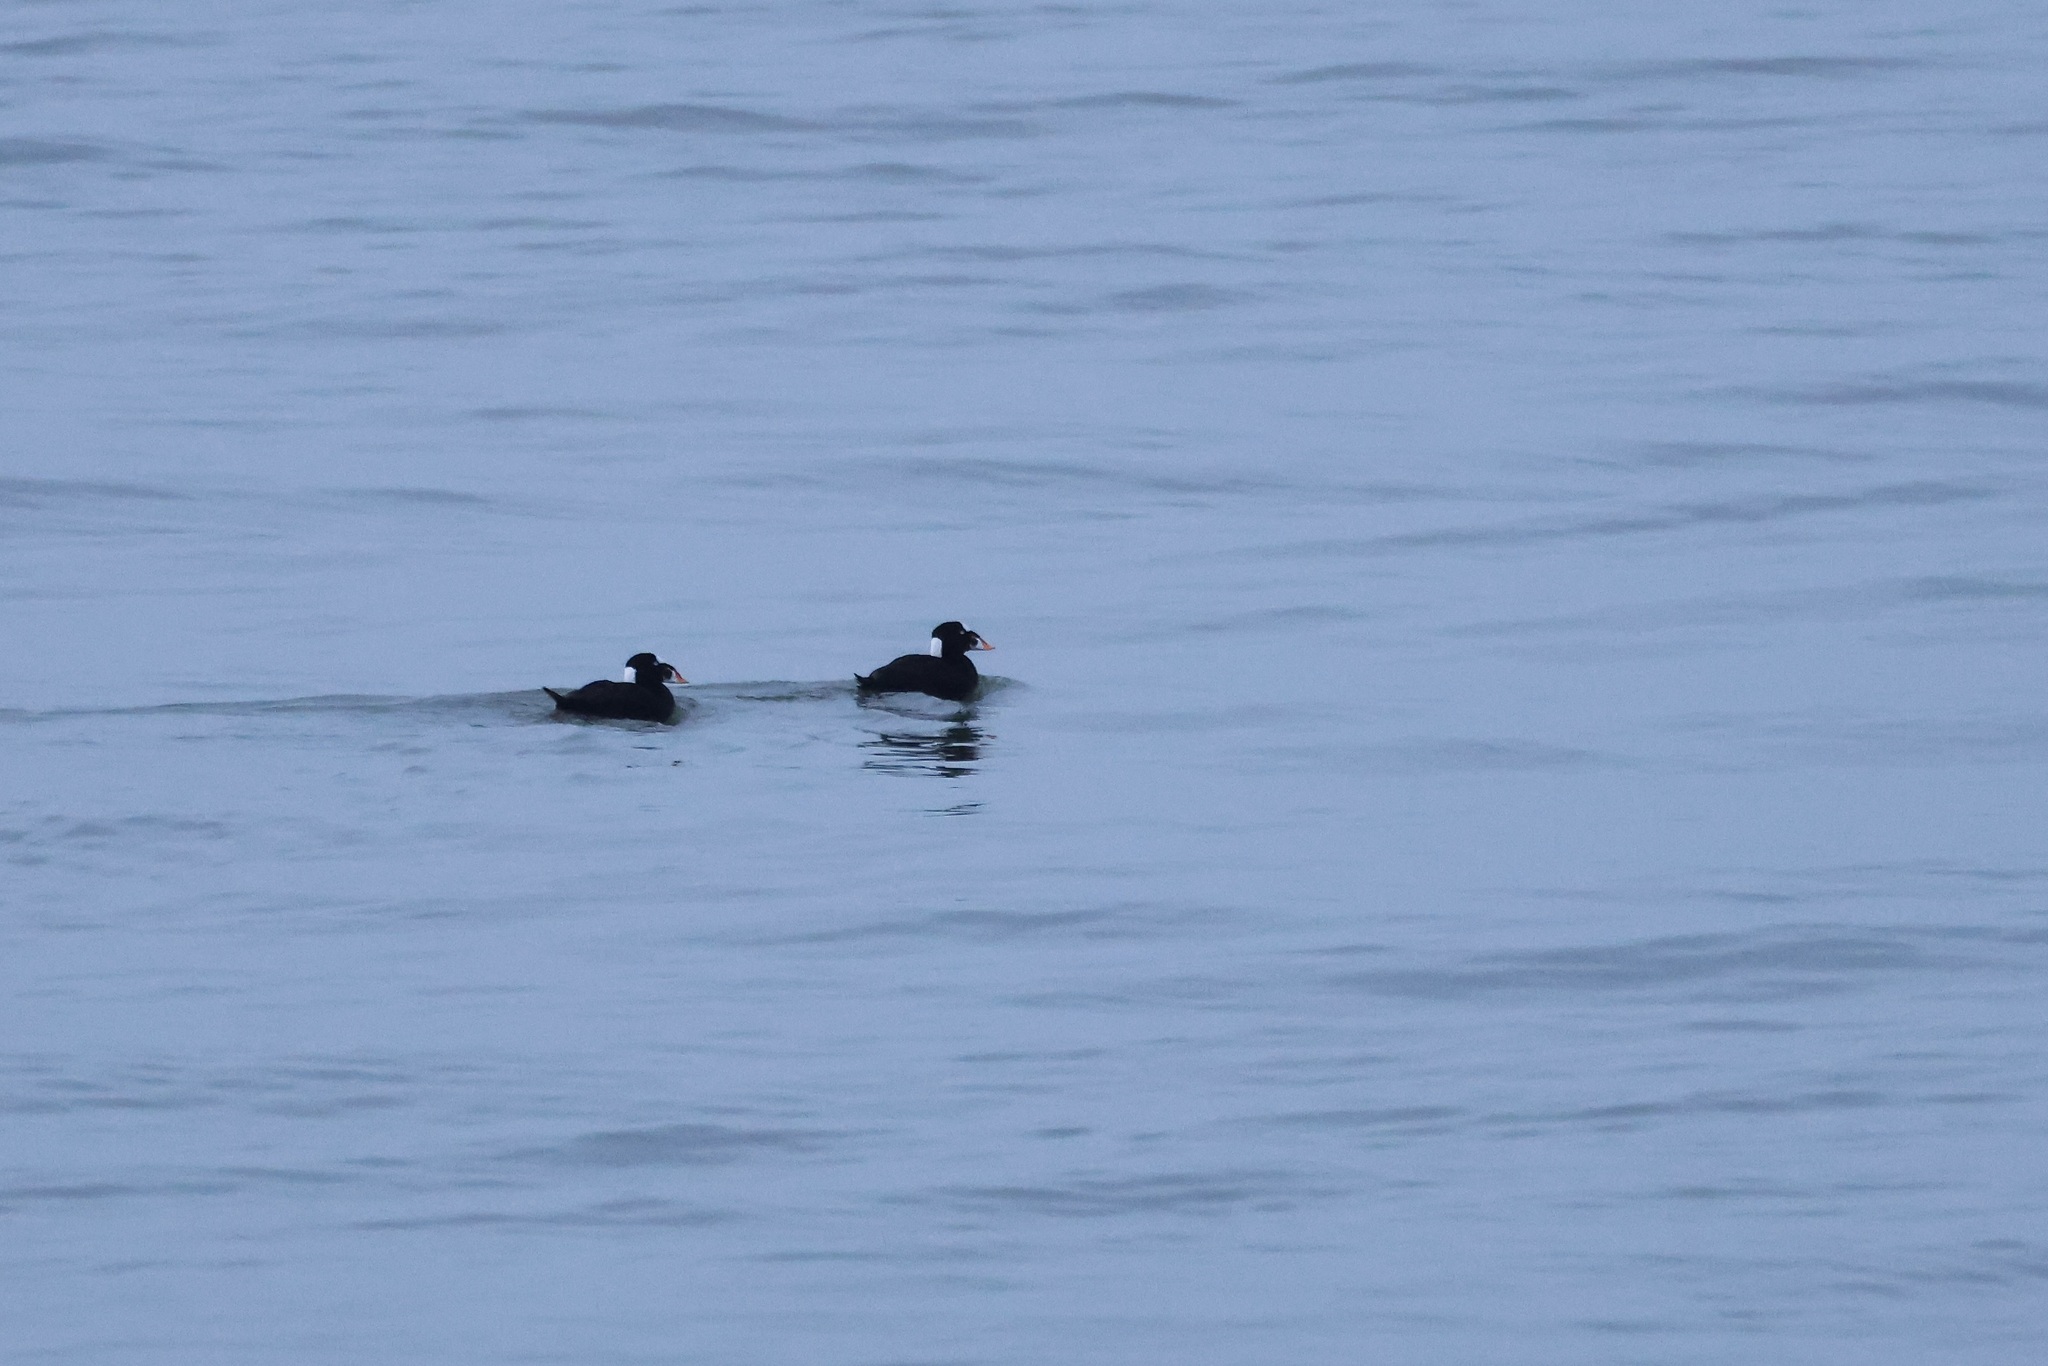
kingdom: Animalia
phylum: Chordata
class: Aves
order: Anseriformes
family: Anatidae
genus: Melanitta
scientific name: Melanitta perspicillata
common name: Surf scoter
